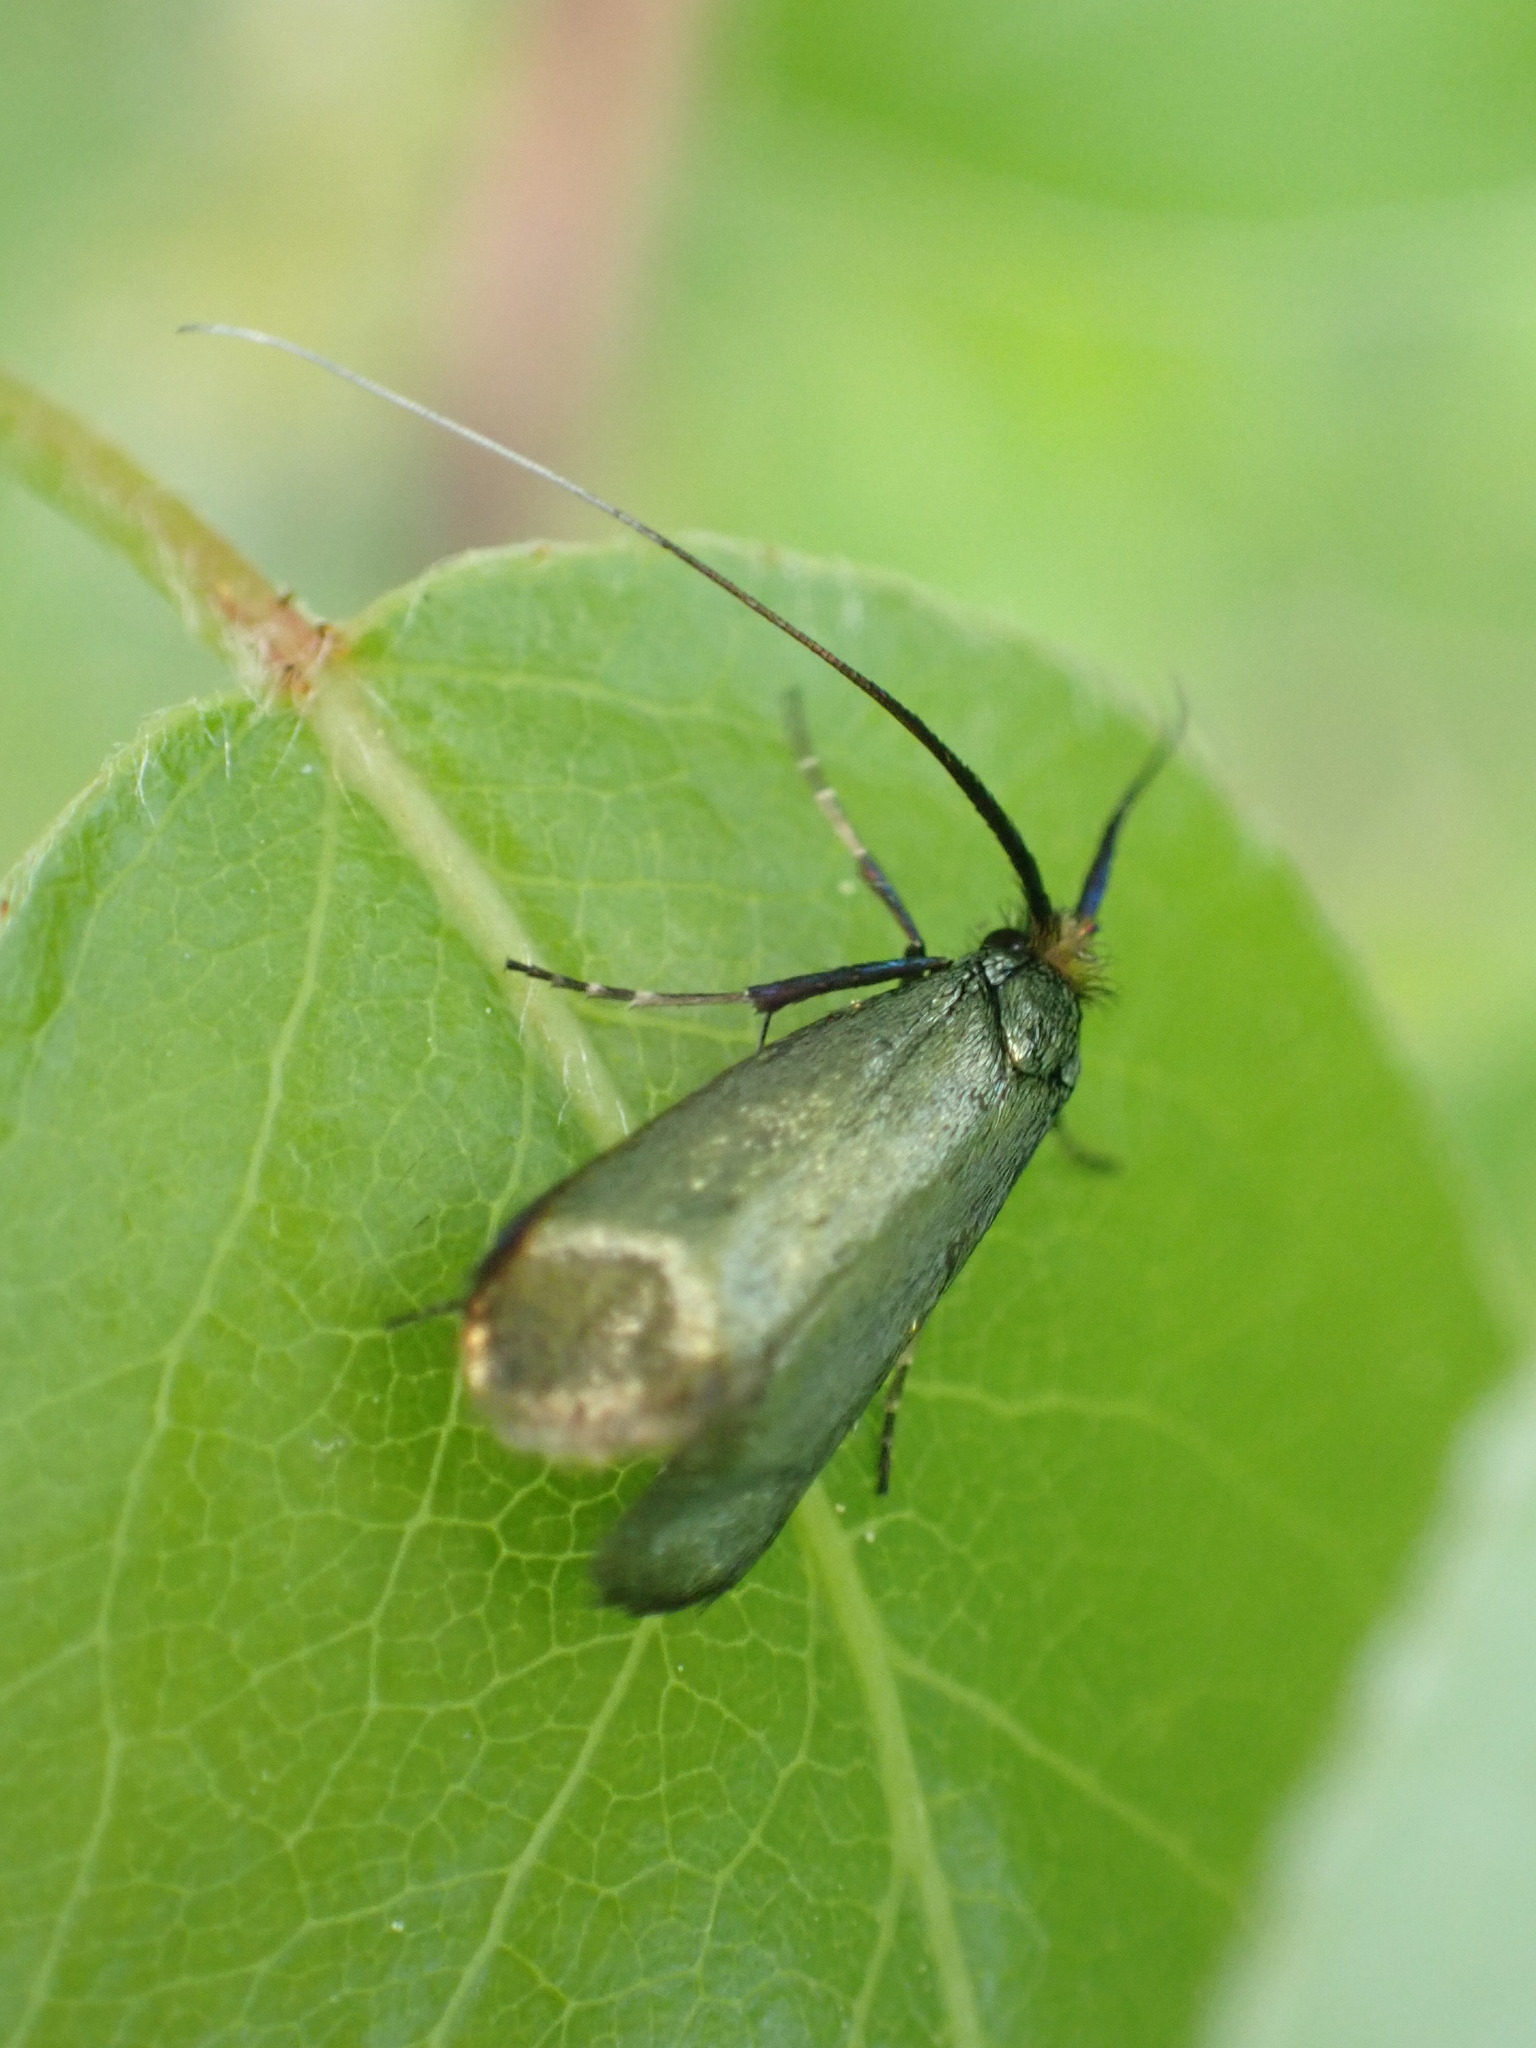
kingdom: Animalia
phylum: Arthropoda
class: Insecta
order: Lepidoptera
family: Adelidae
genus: Adela
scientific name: Adela viridella
